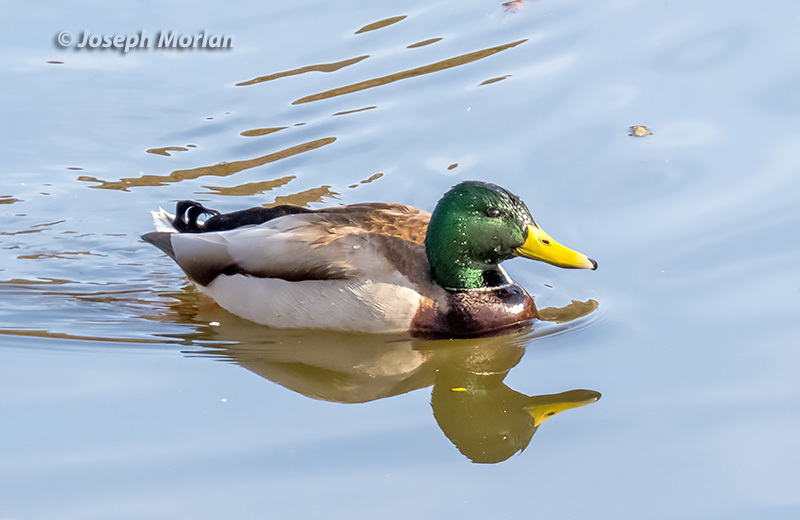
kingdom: Animalia
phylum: Chordata
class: Aves
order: Anseriformes
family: Anatidae
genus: Anas
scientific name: Anas platyrhynchos
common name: Mallard
